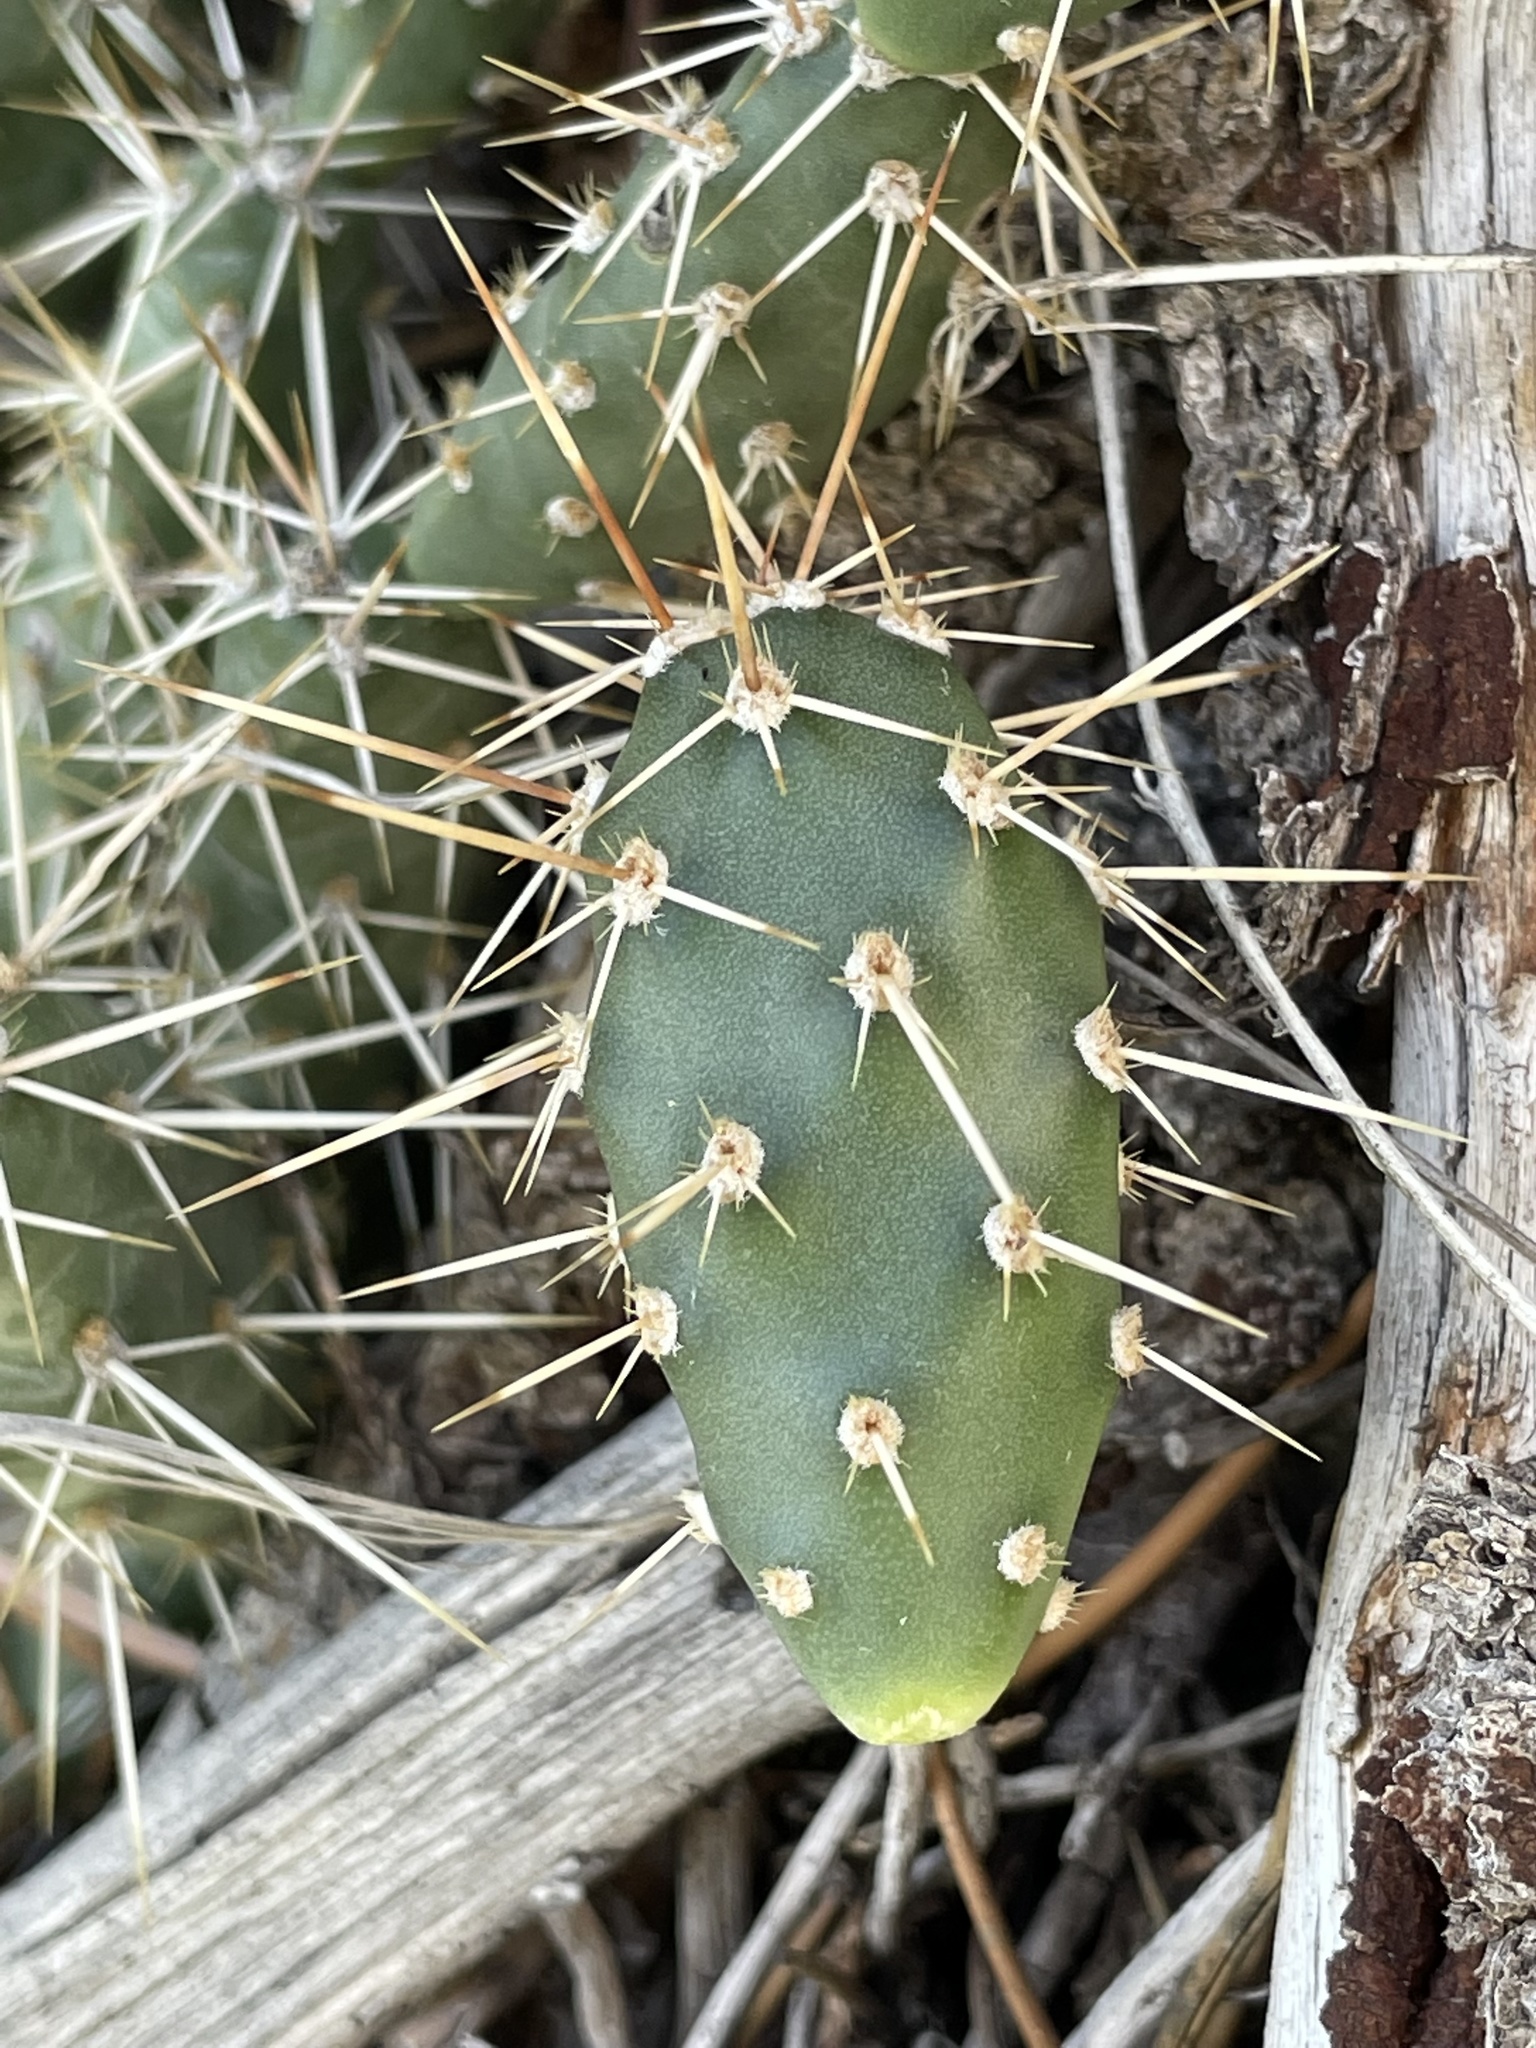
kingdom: Plantae
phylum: Tracheophyta
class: Magnoliopsida
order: Caryophyllales
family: Cactaceae
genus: Opuntia
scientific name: Opuntia fragilis
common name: Brittle cactus
